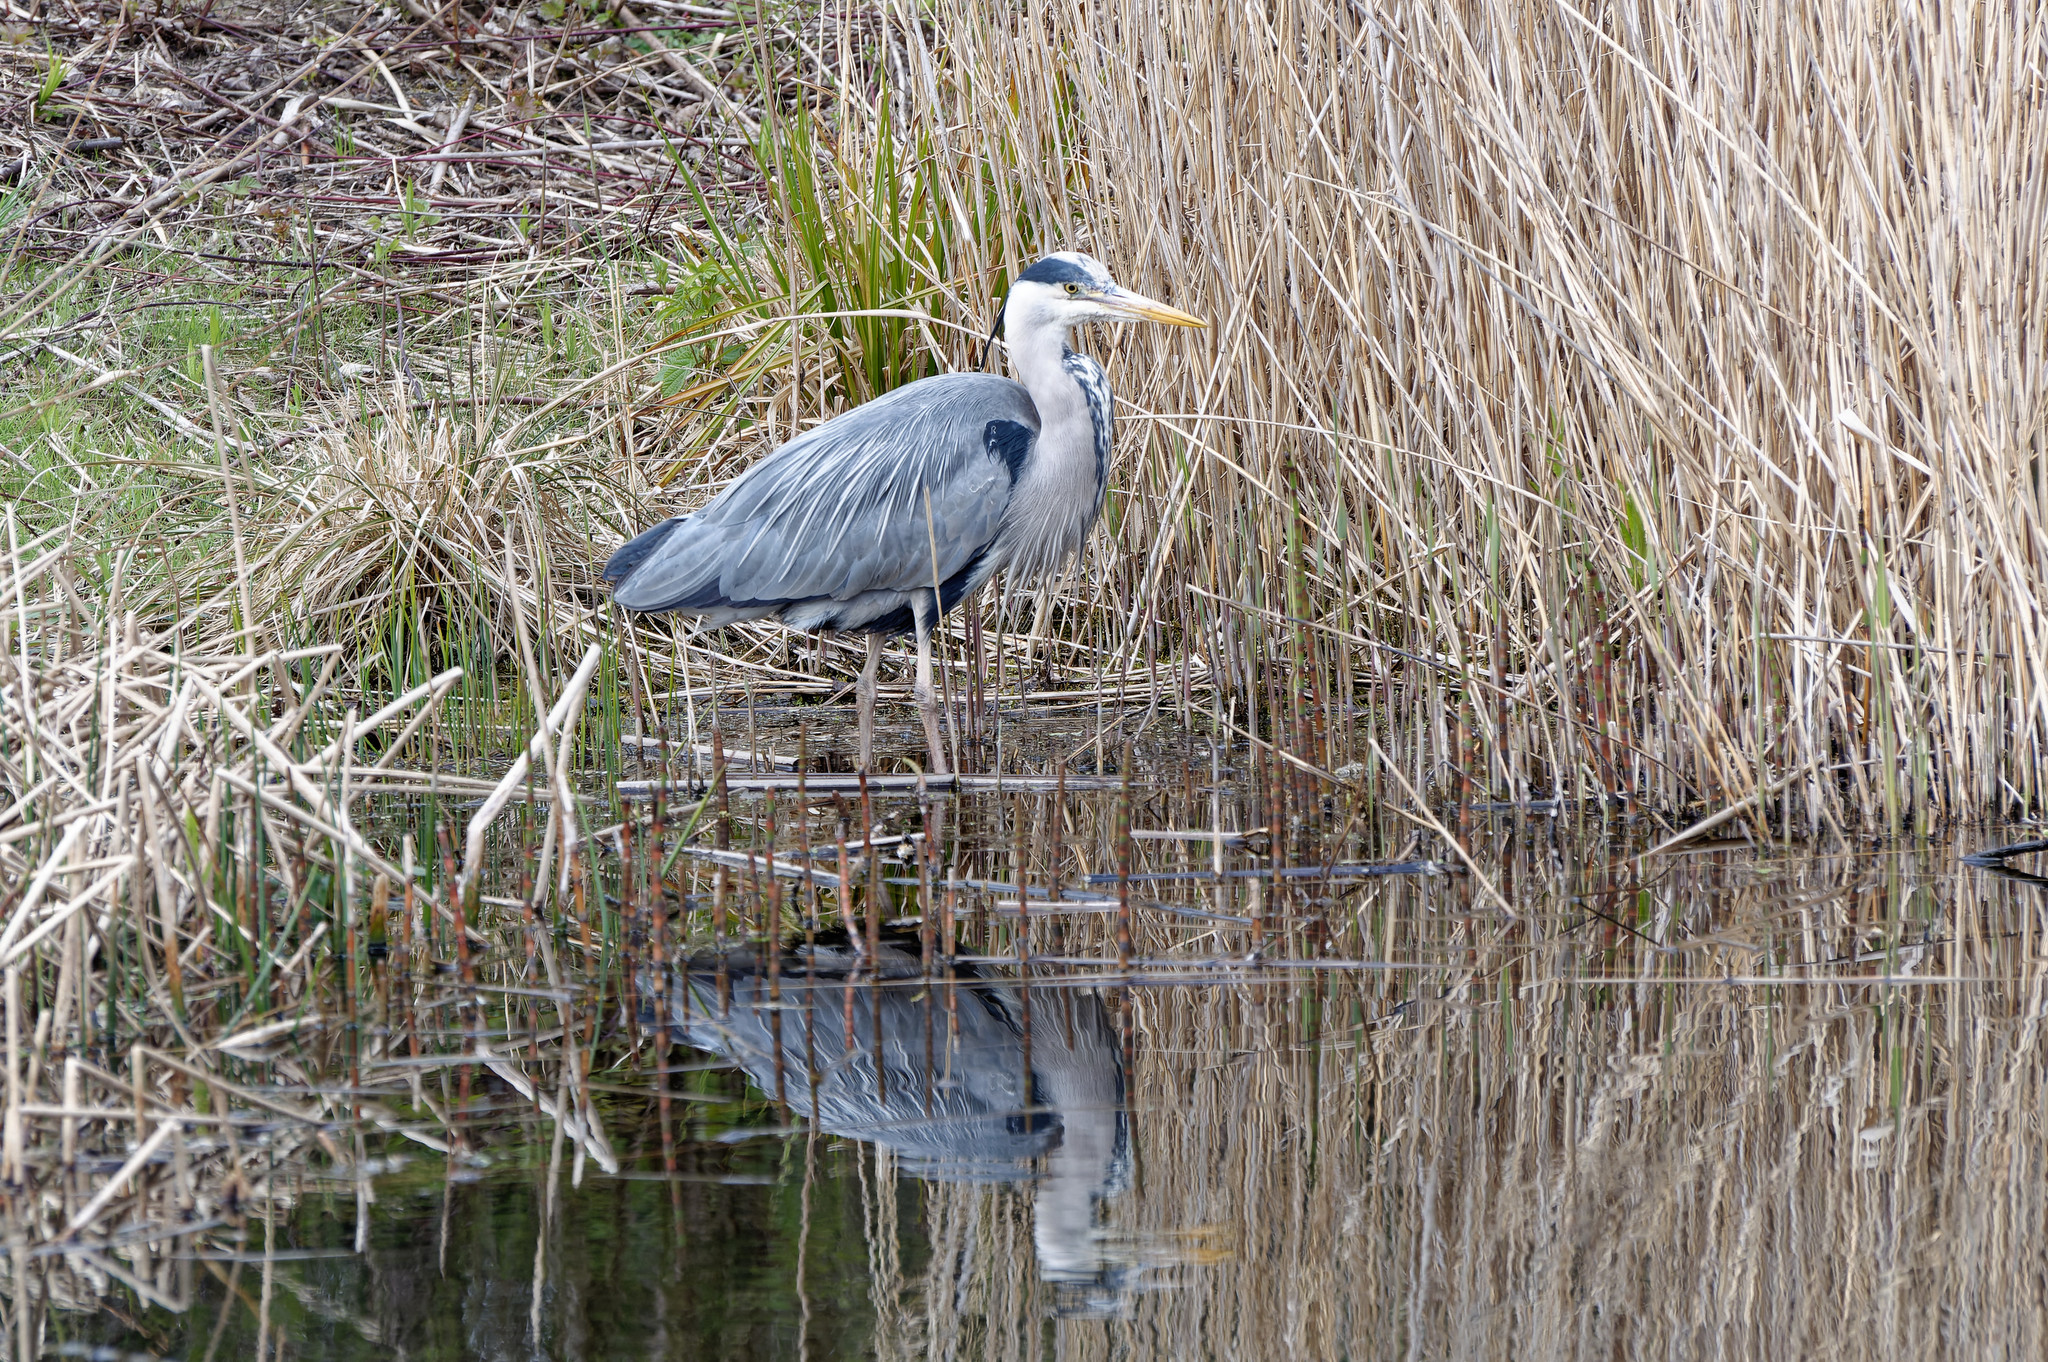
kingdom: Animalia
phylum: Chordata
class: Aves
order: Pelecaniformes
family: Ardeidae
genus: Ardea
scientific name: Ardea cinerea
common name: Grey heron
